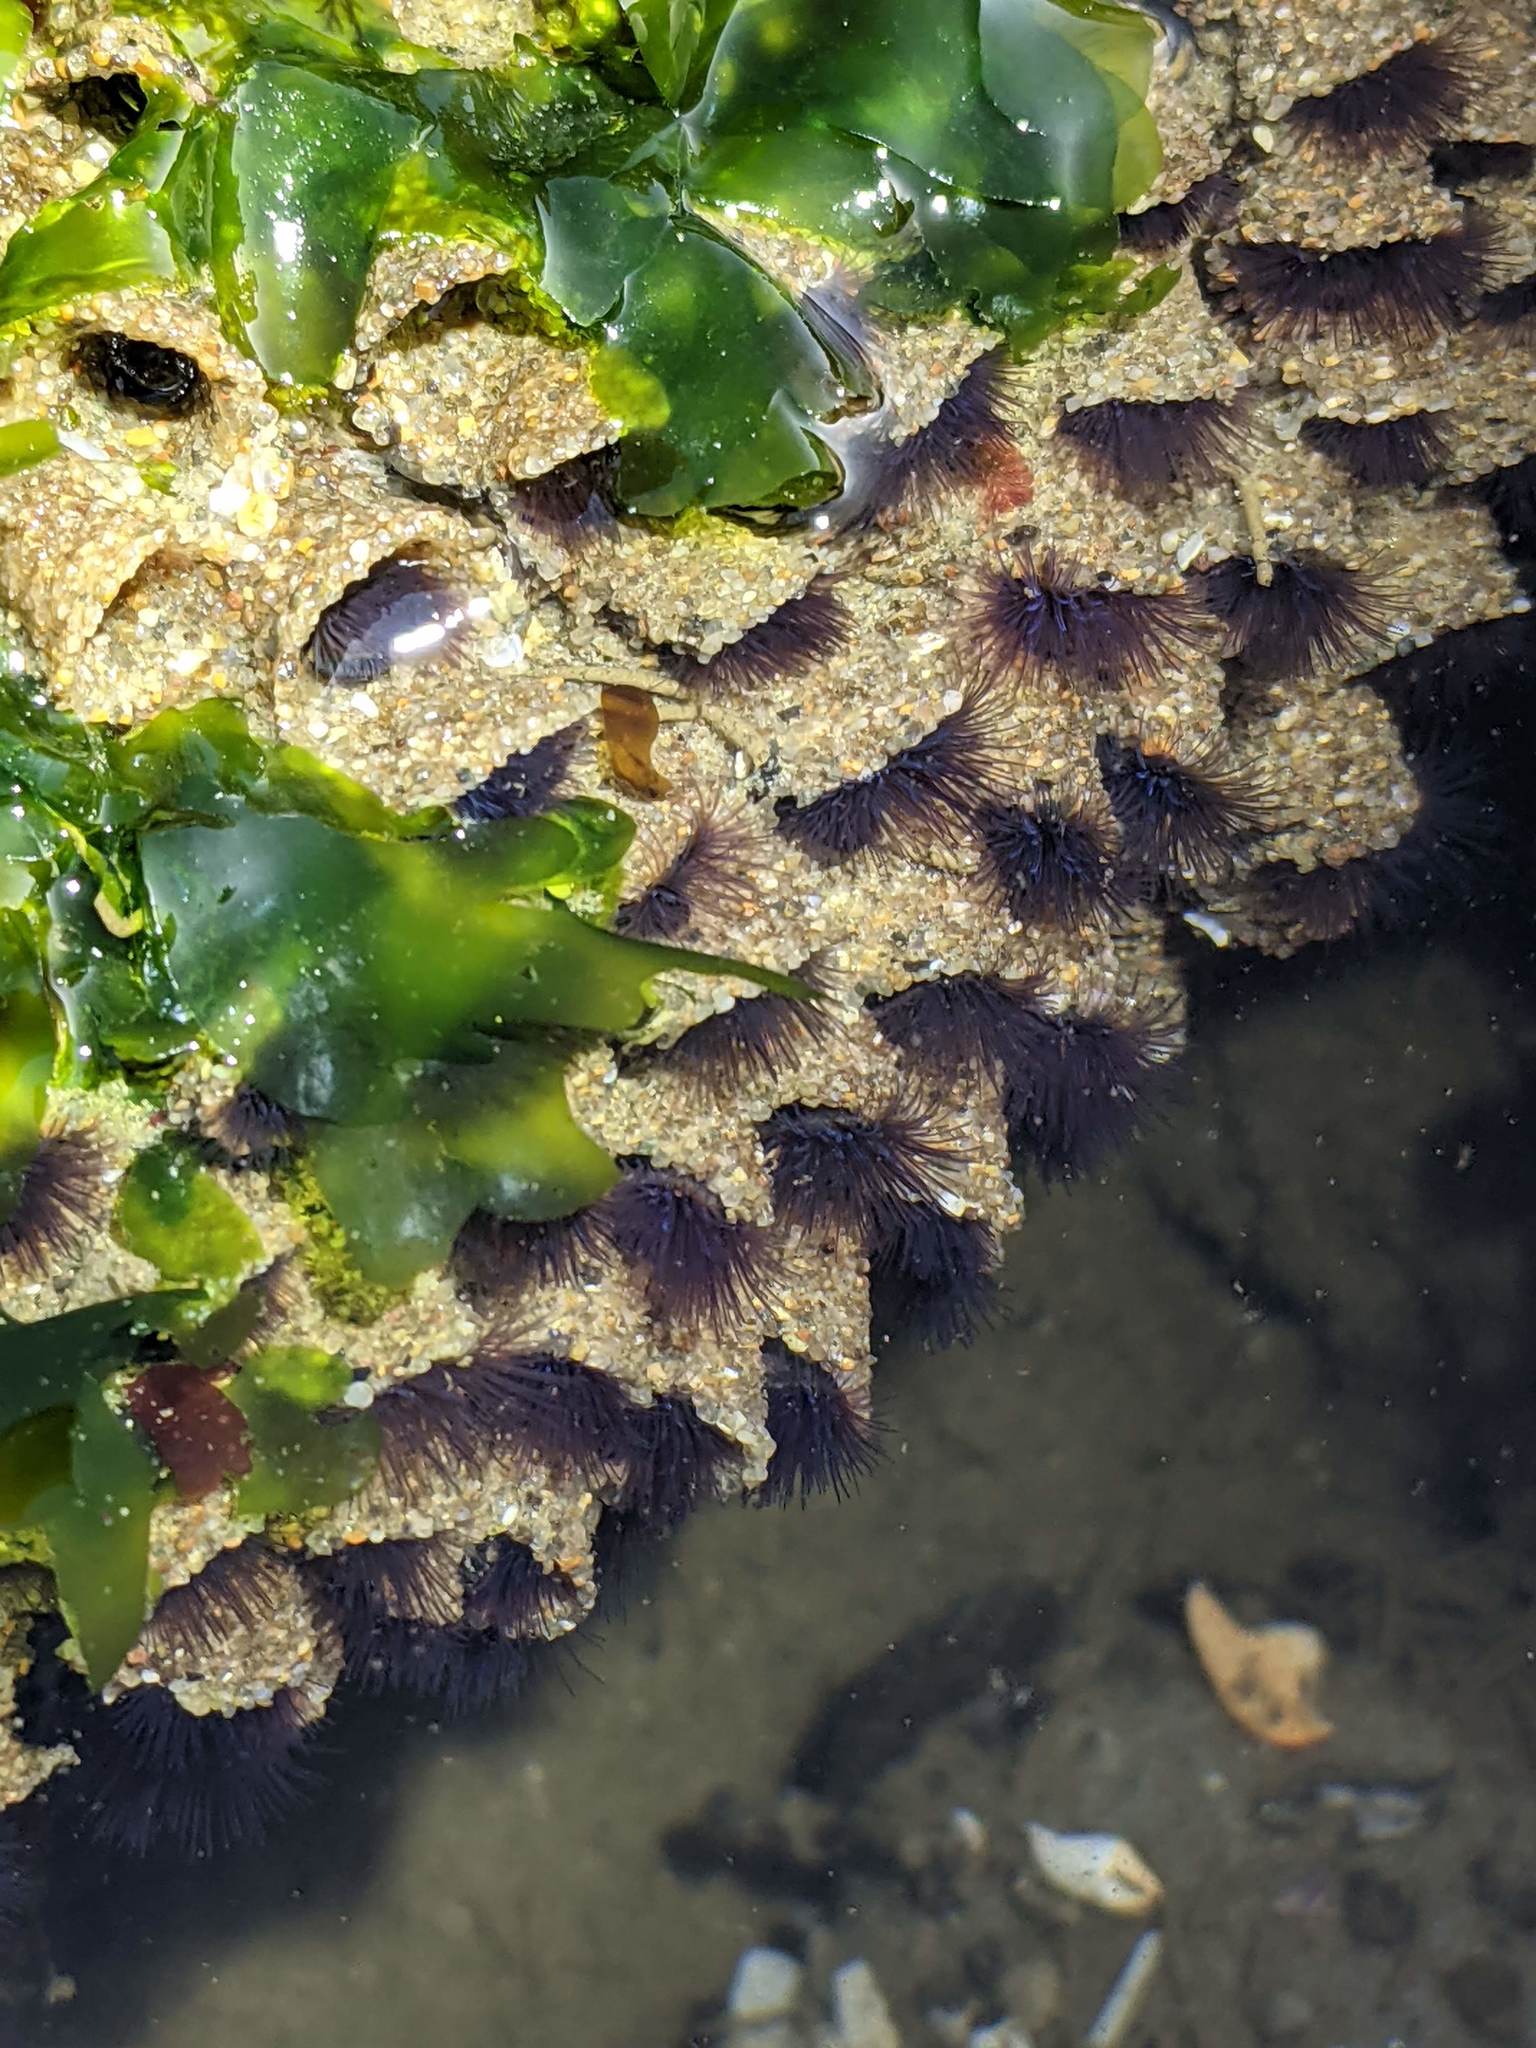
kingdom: Animalia
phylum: Annelida
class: Polychaeta
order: Sabellida
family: Sabellariidae
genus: Phragmatopoma
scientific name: Phragmatopoma californica
